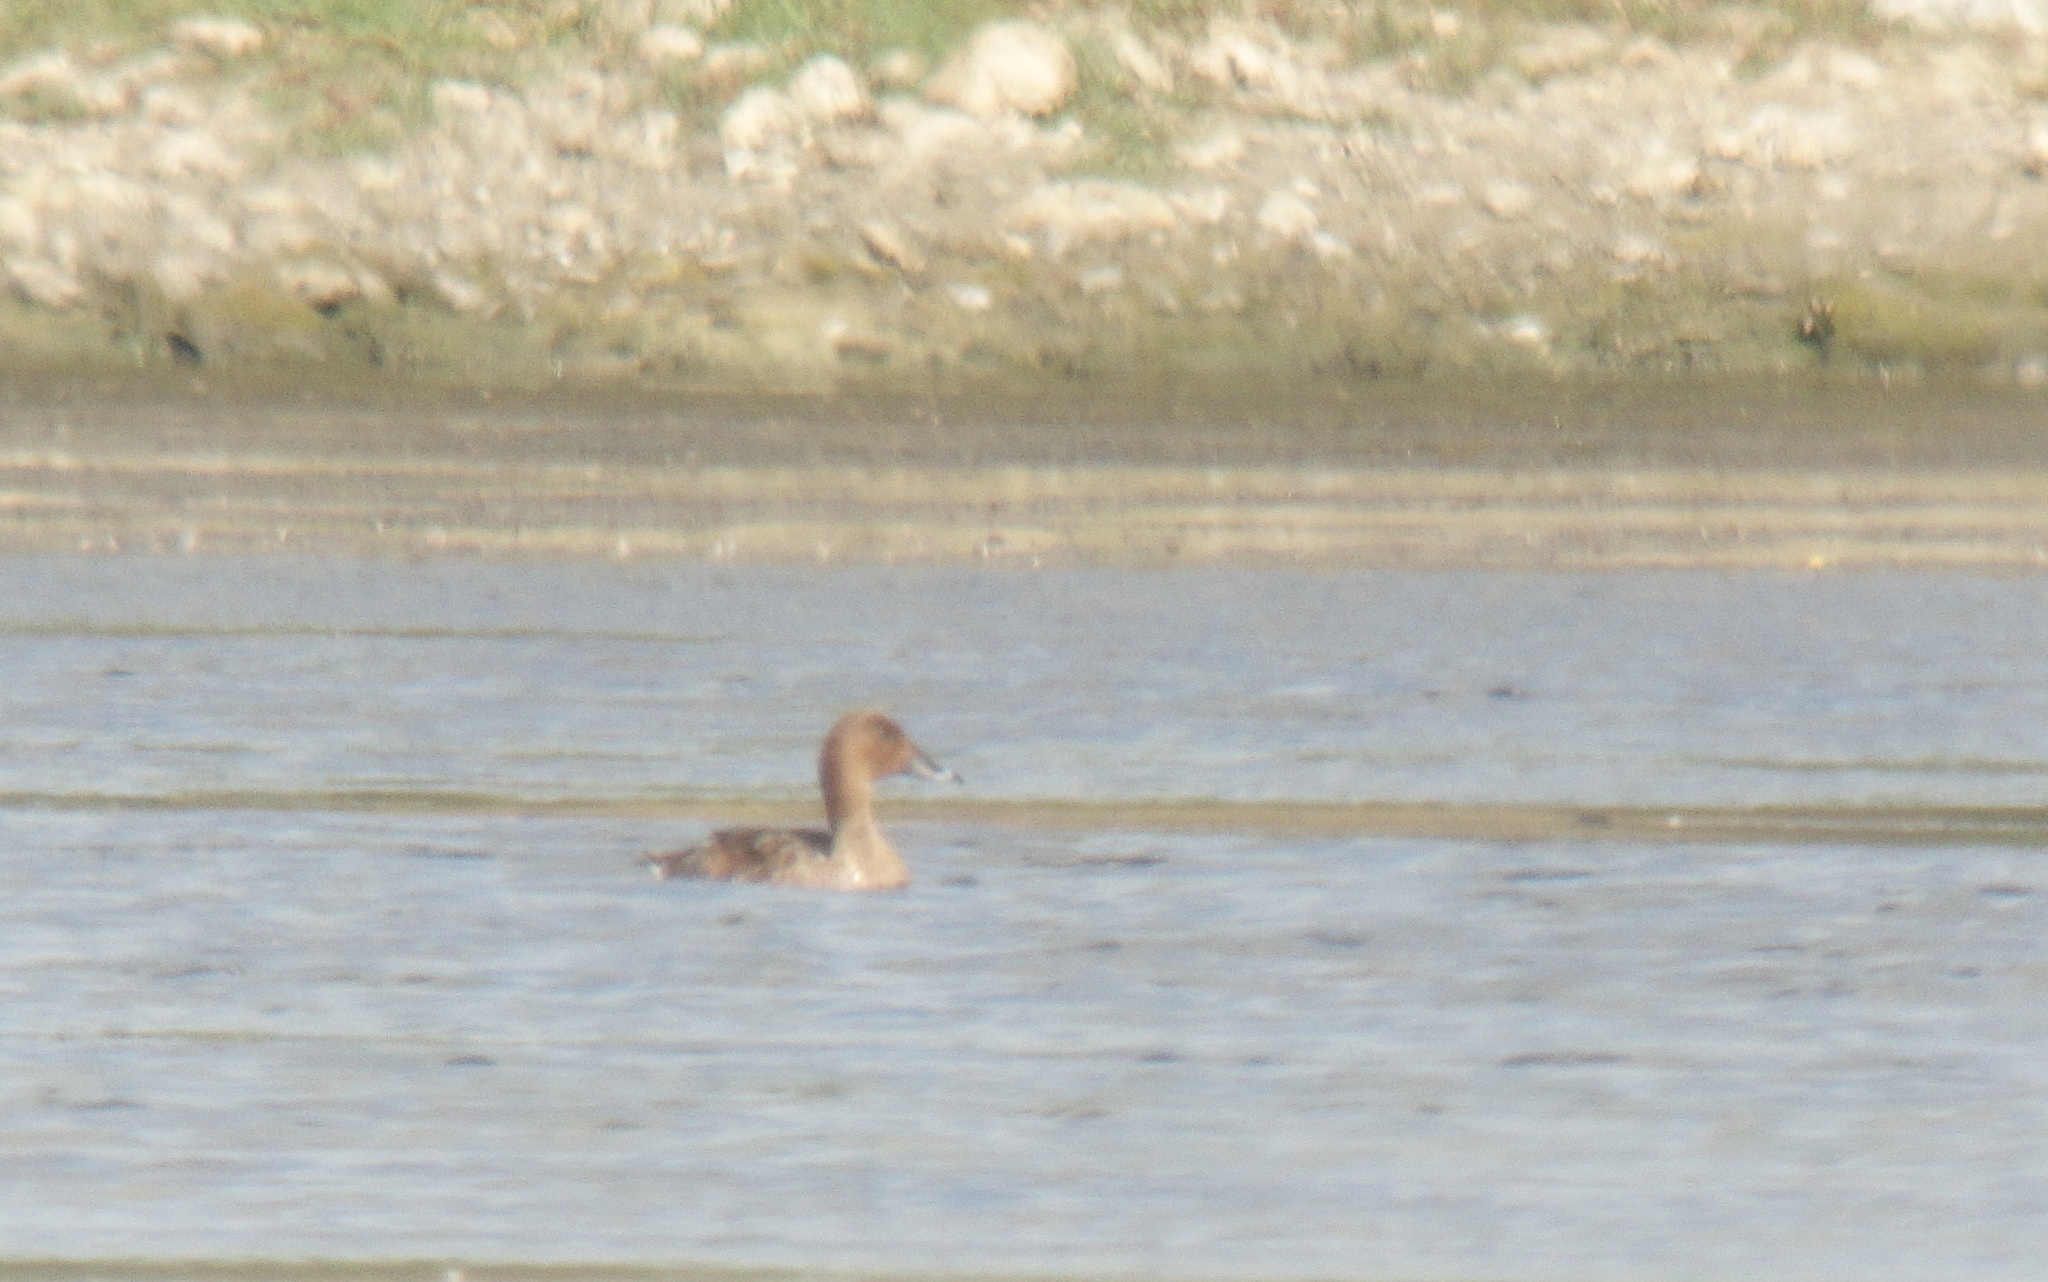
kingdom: Animalia
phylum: Chordata
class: Aves
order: Anseriformes
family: Anatidae
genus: Aythya
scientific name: Aythya australis
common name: Hardhead
